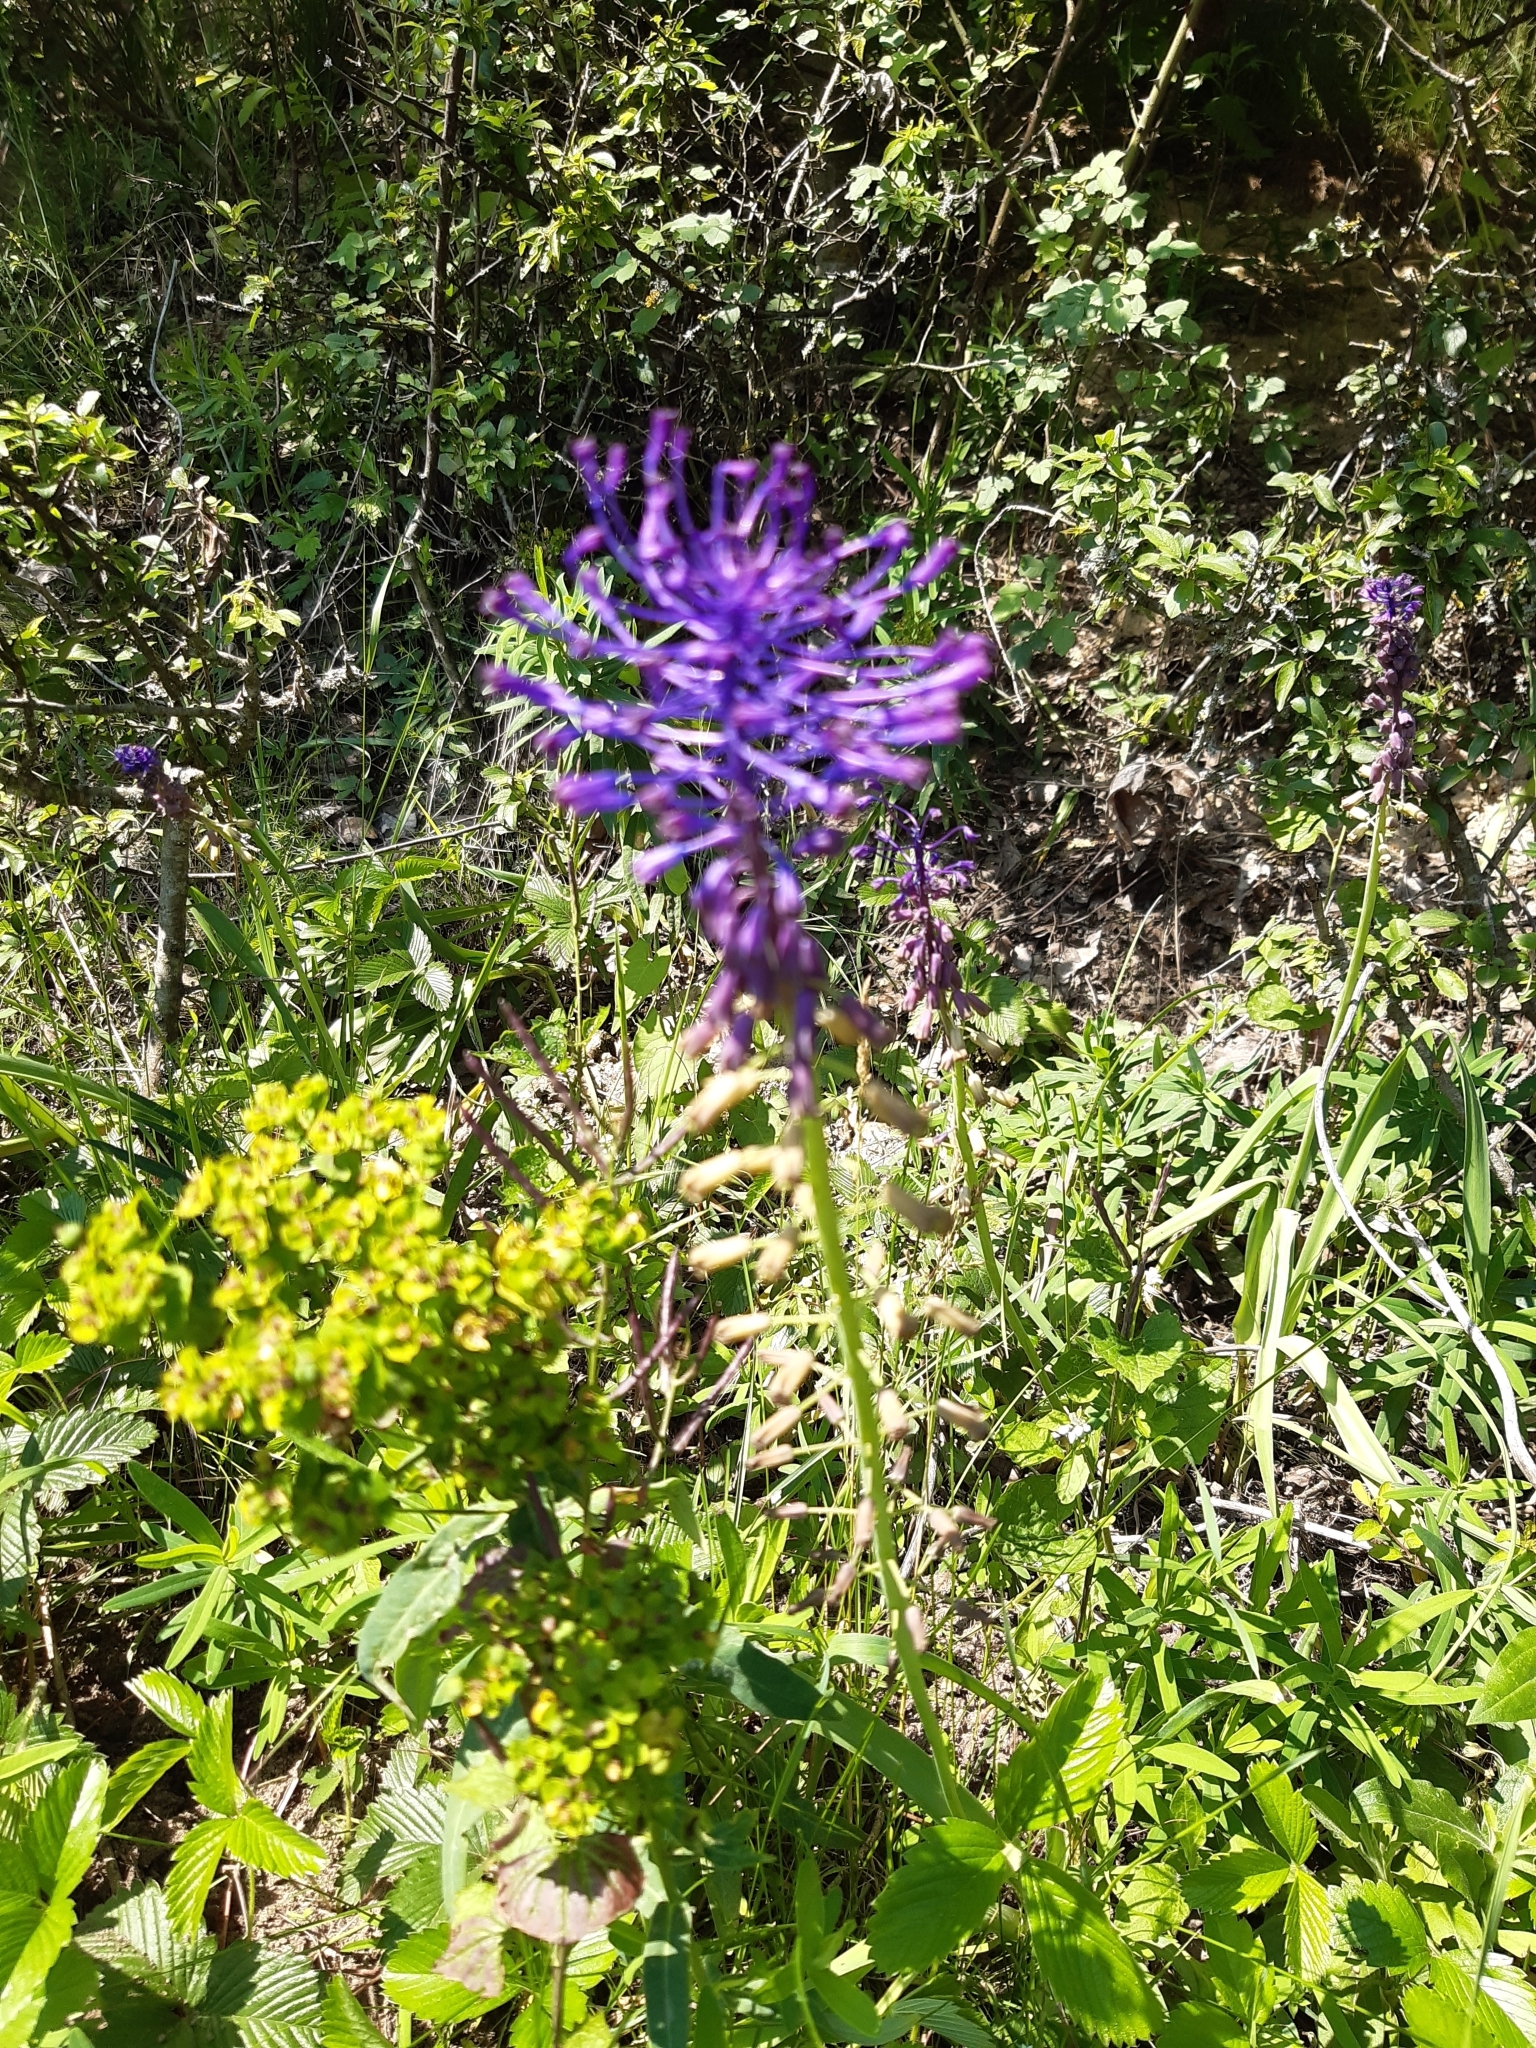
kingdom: Plantae
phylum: Tracheophyta
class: Liliopsida
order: Asparagales
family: Asparagaceae
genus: Muscari
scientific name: Muscari comosum
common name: Tassel hyacinth
